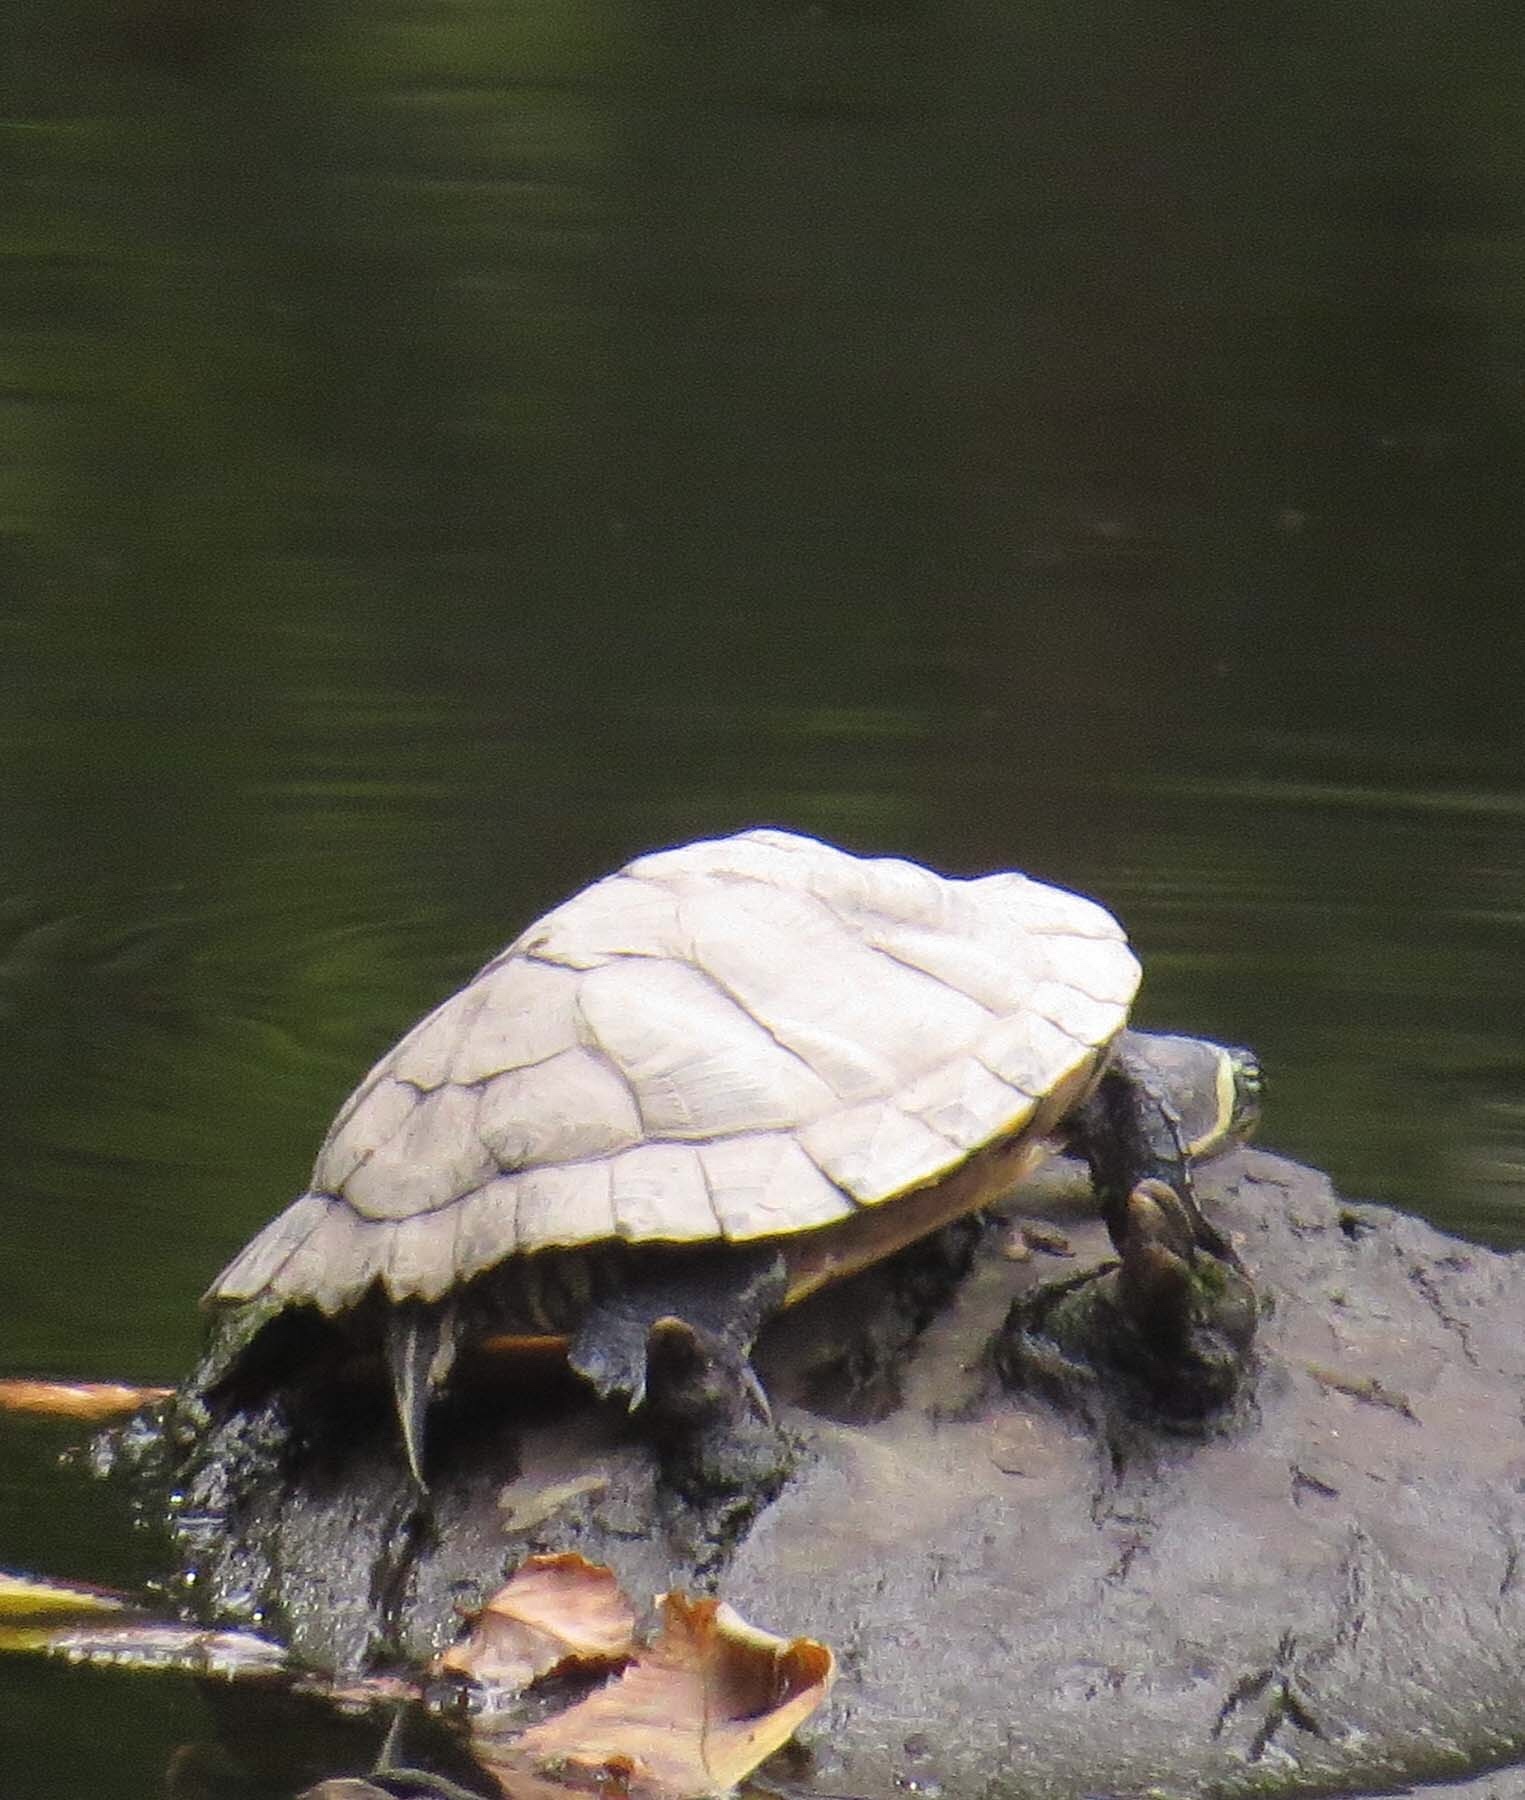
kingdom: Animalia
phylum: Chordata
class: Testudines
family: Emydidae
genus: Trachemys
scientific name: Trachemys scripta
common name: Slider
